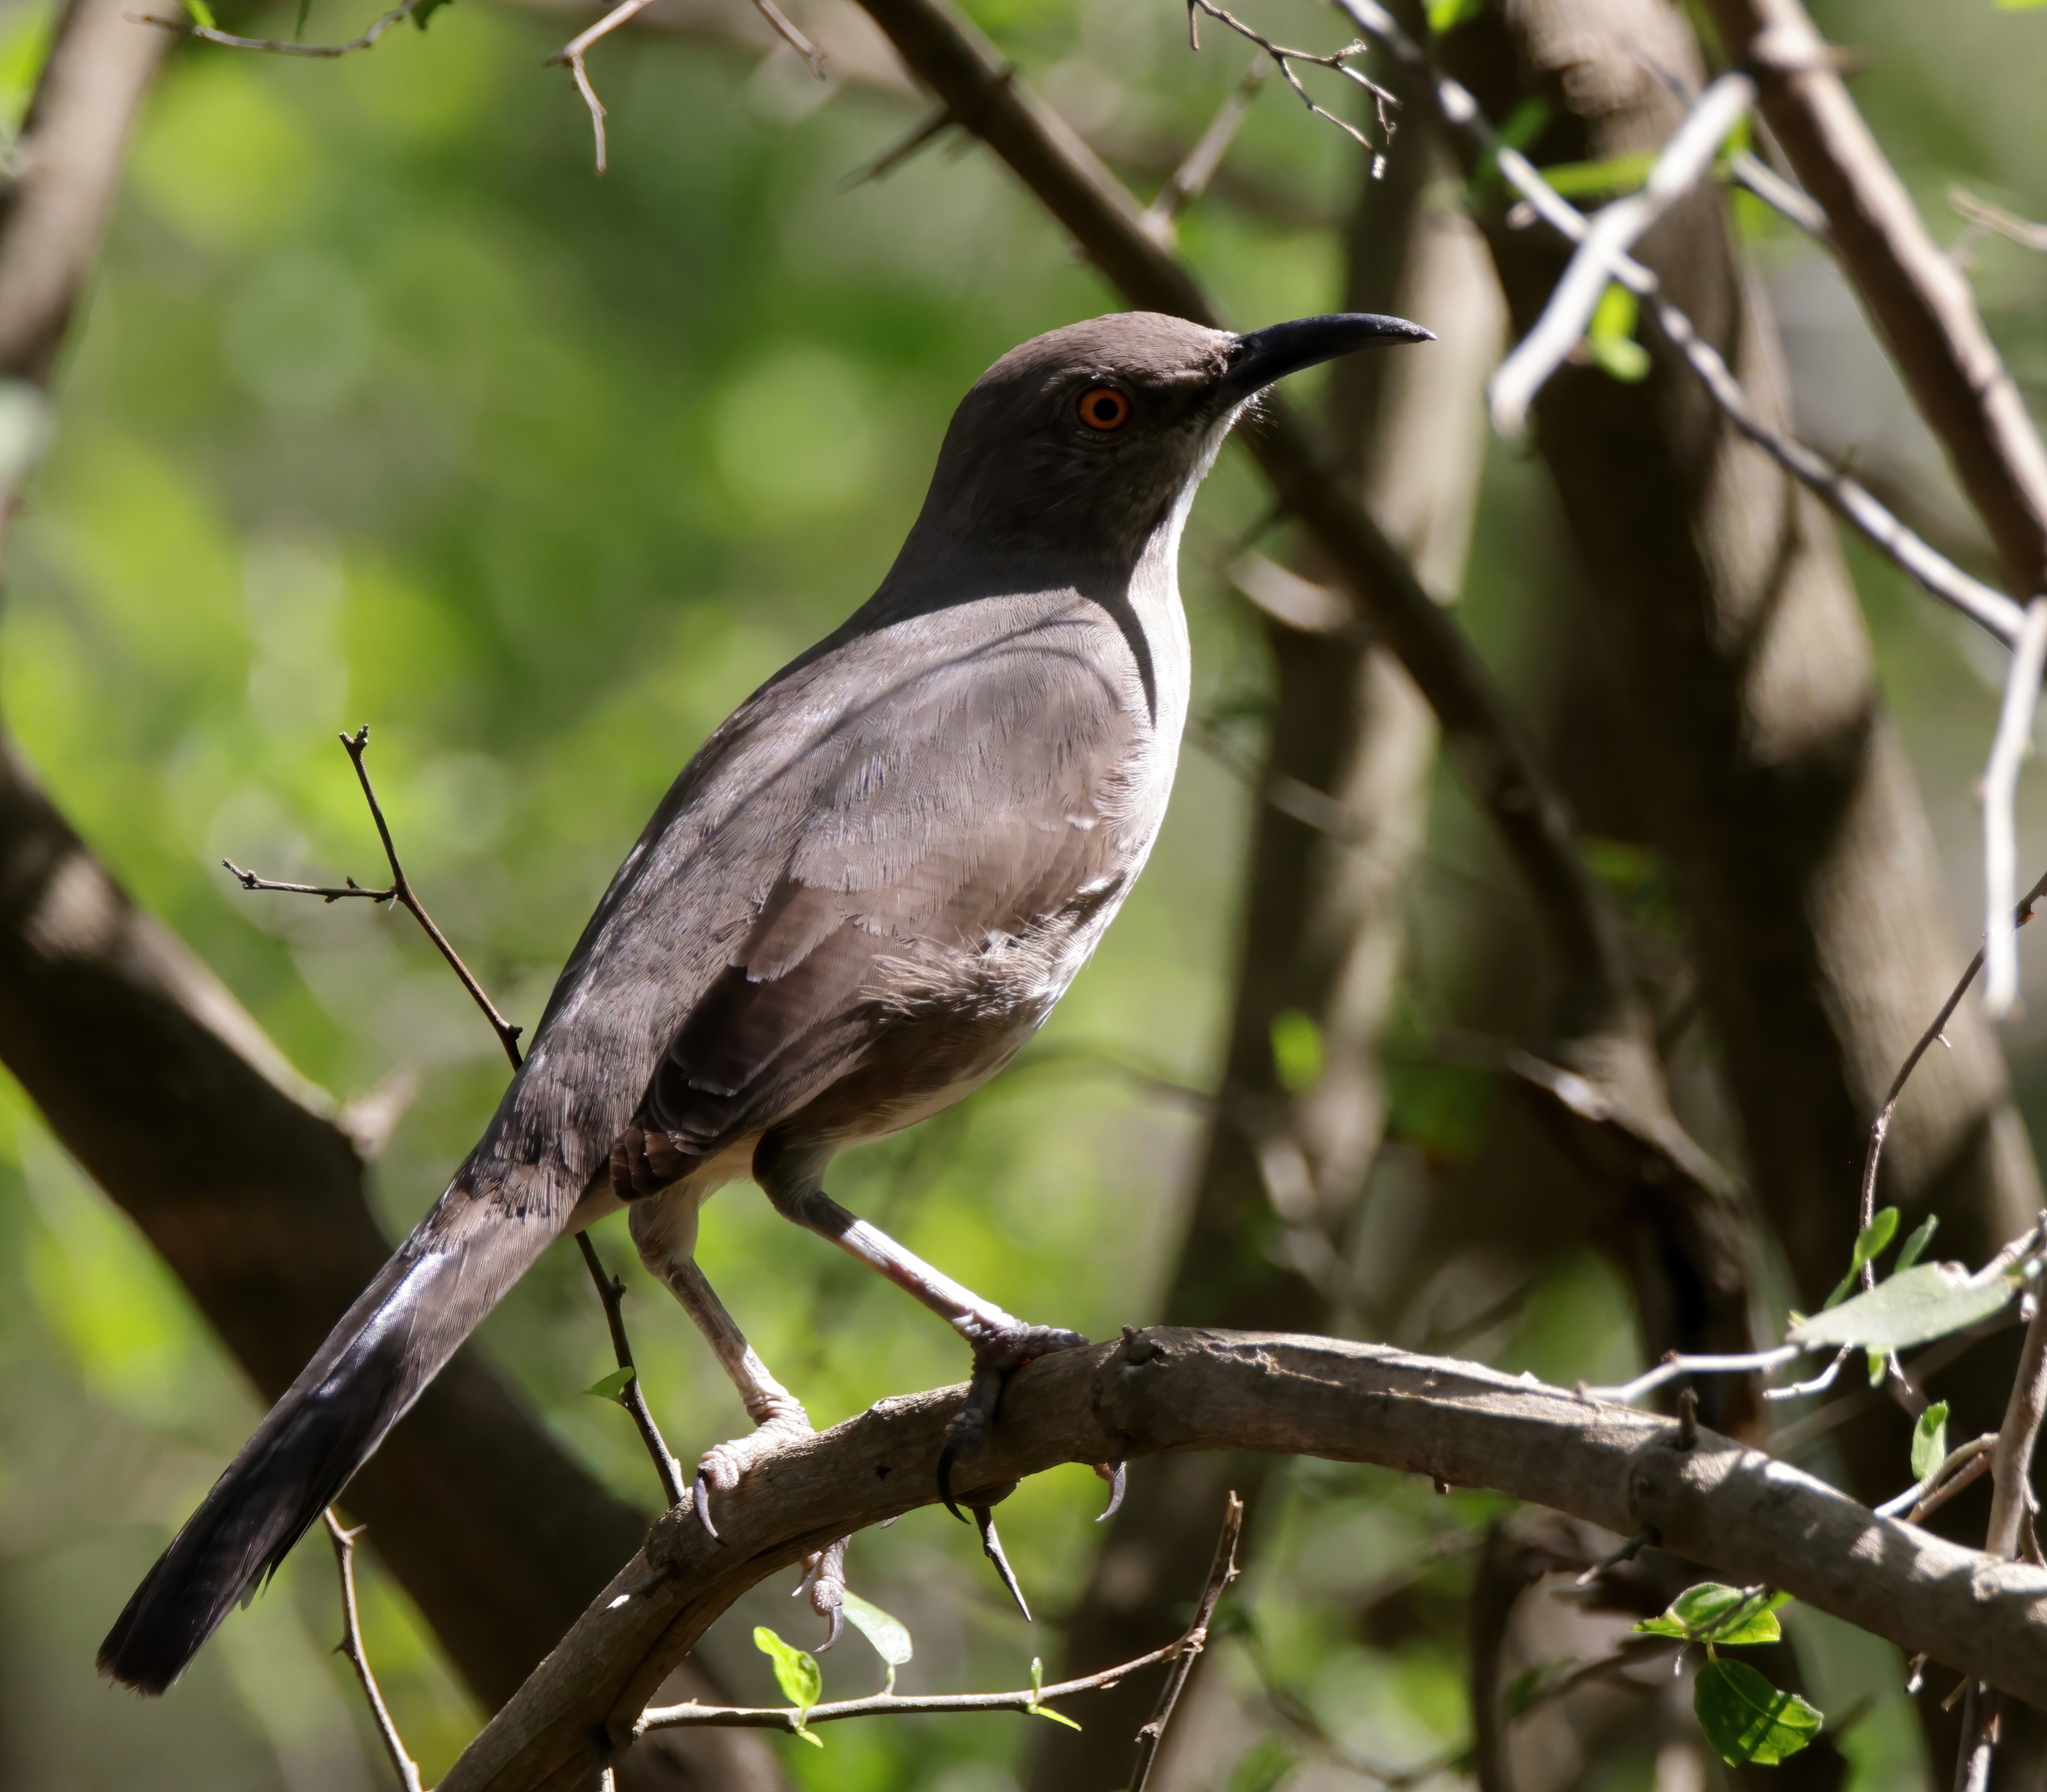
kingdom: Animalia
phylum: Chordata
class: Aves
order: Passeriformes
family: Mimidae
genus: Toxostoma
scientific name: Toxostoma curvirostre
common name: Curve-billed thrasher
